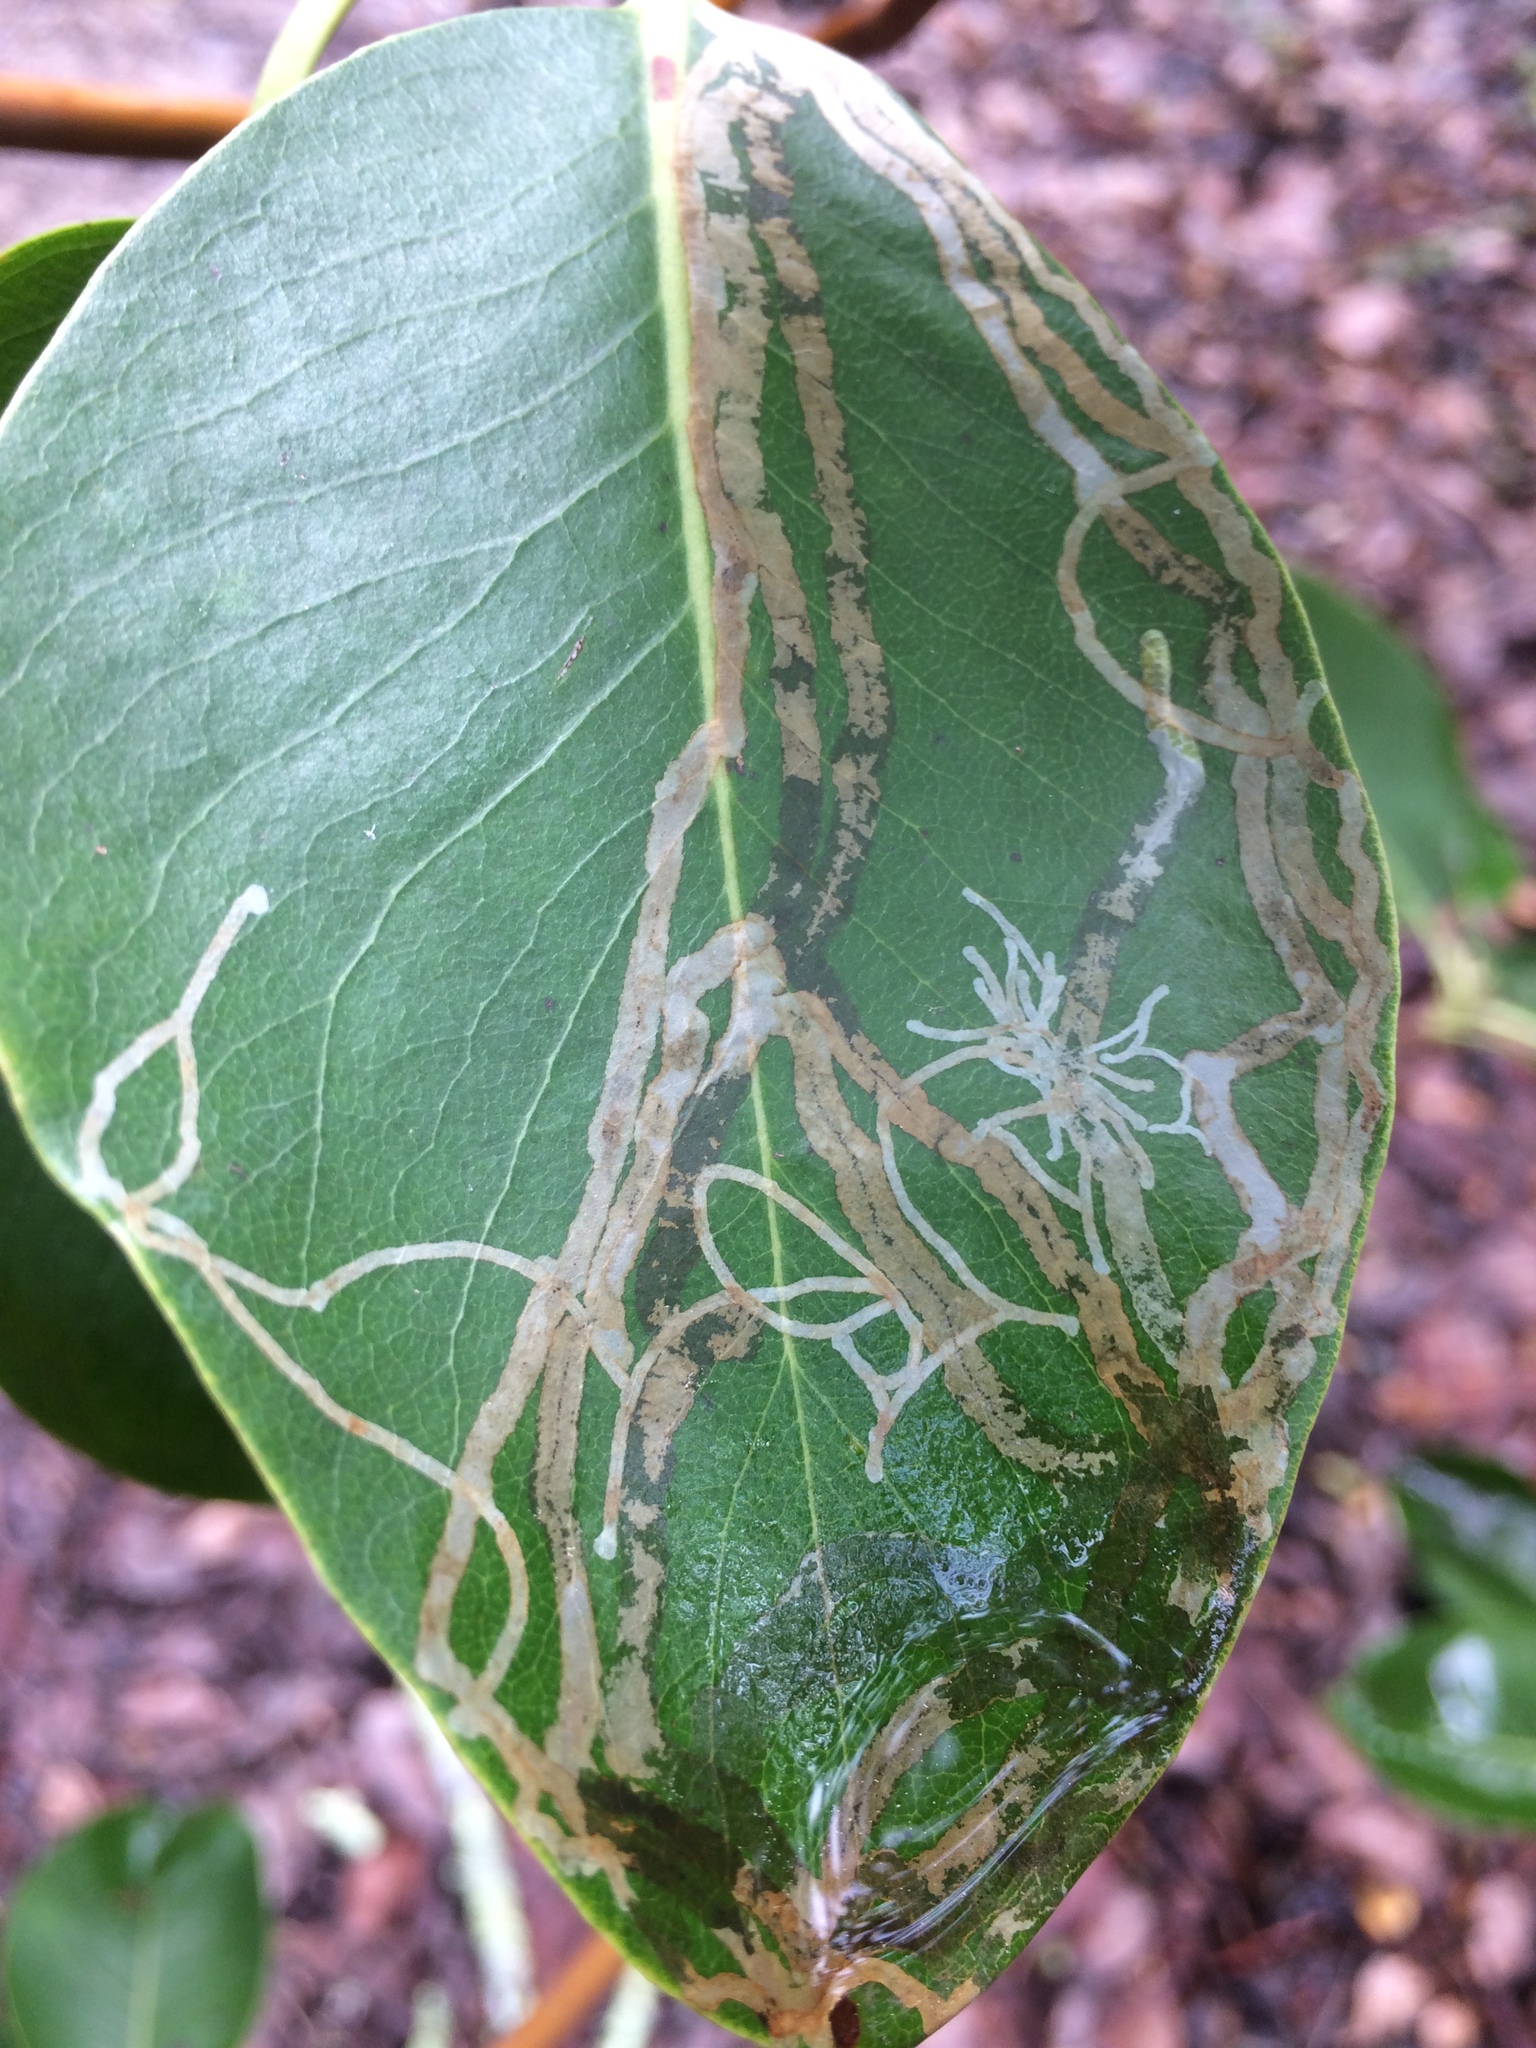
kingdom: Animalia
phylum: Arthropoda
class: Insecta
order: Lepidoptera
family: Gracillariidae
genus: Marmara
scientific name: Marmara arbutiella
